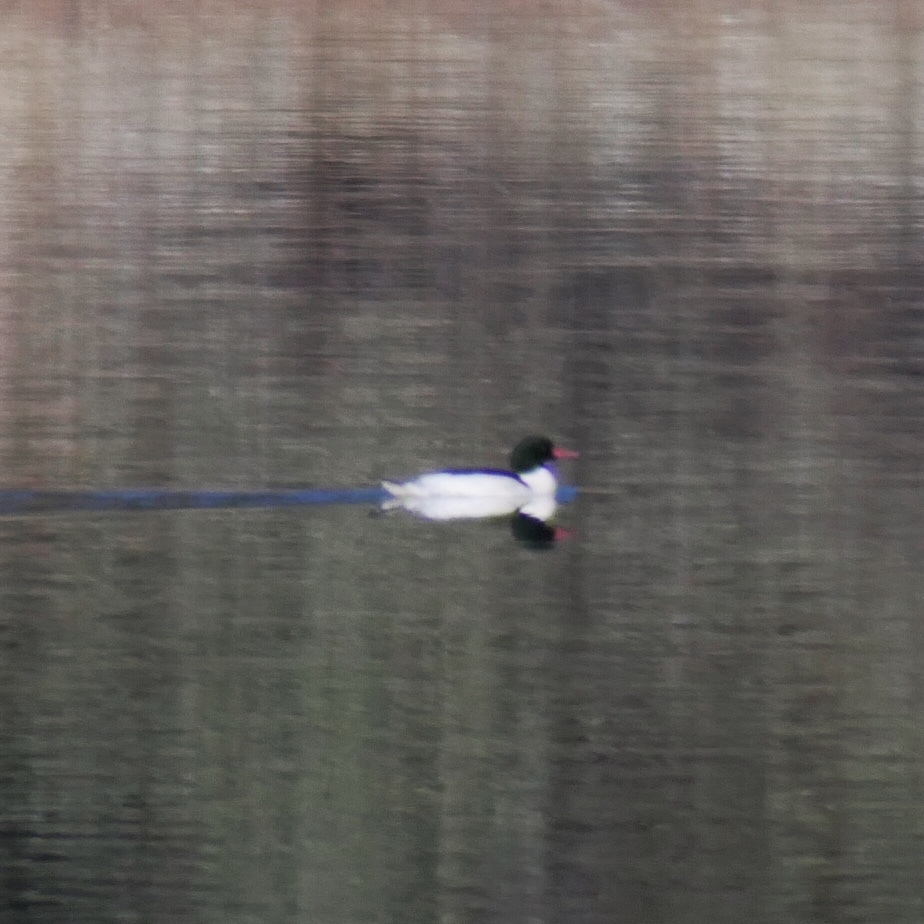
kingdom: Animalia
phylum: Chordata
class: Aves
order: Anseriformes
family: Anatidae
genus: Mergus
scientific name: Mergus merganser
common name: Common merganser
